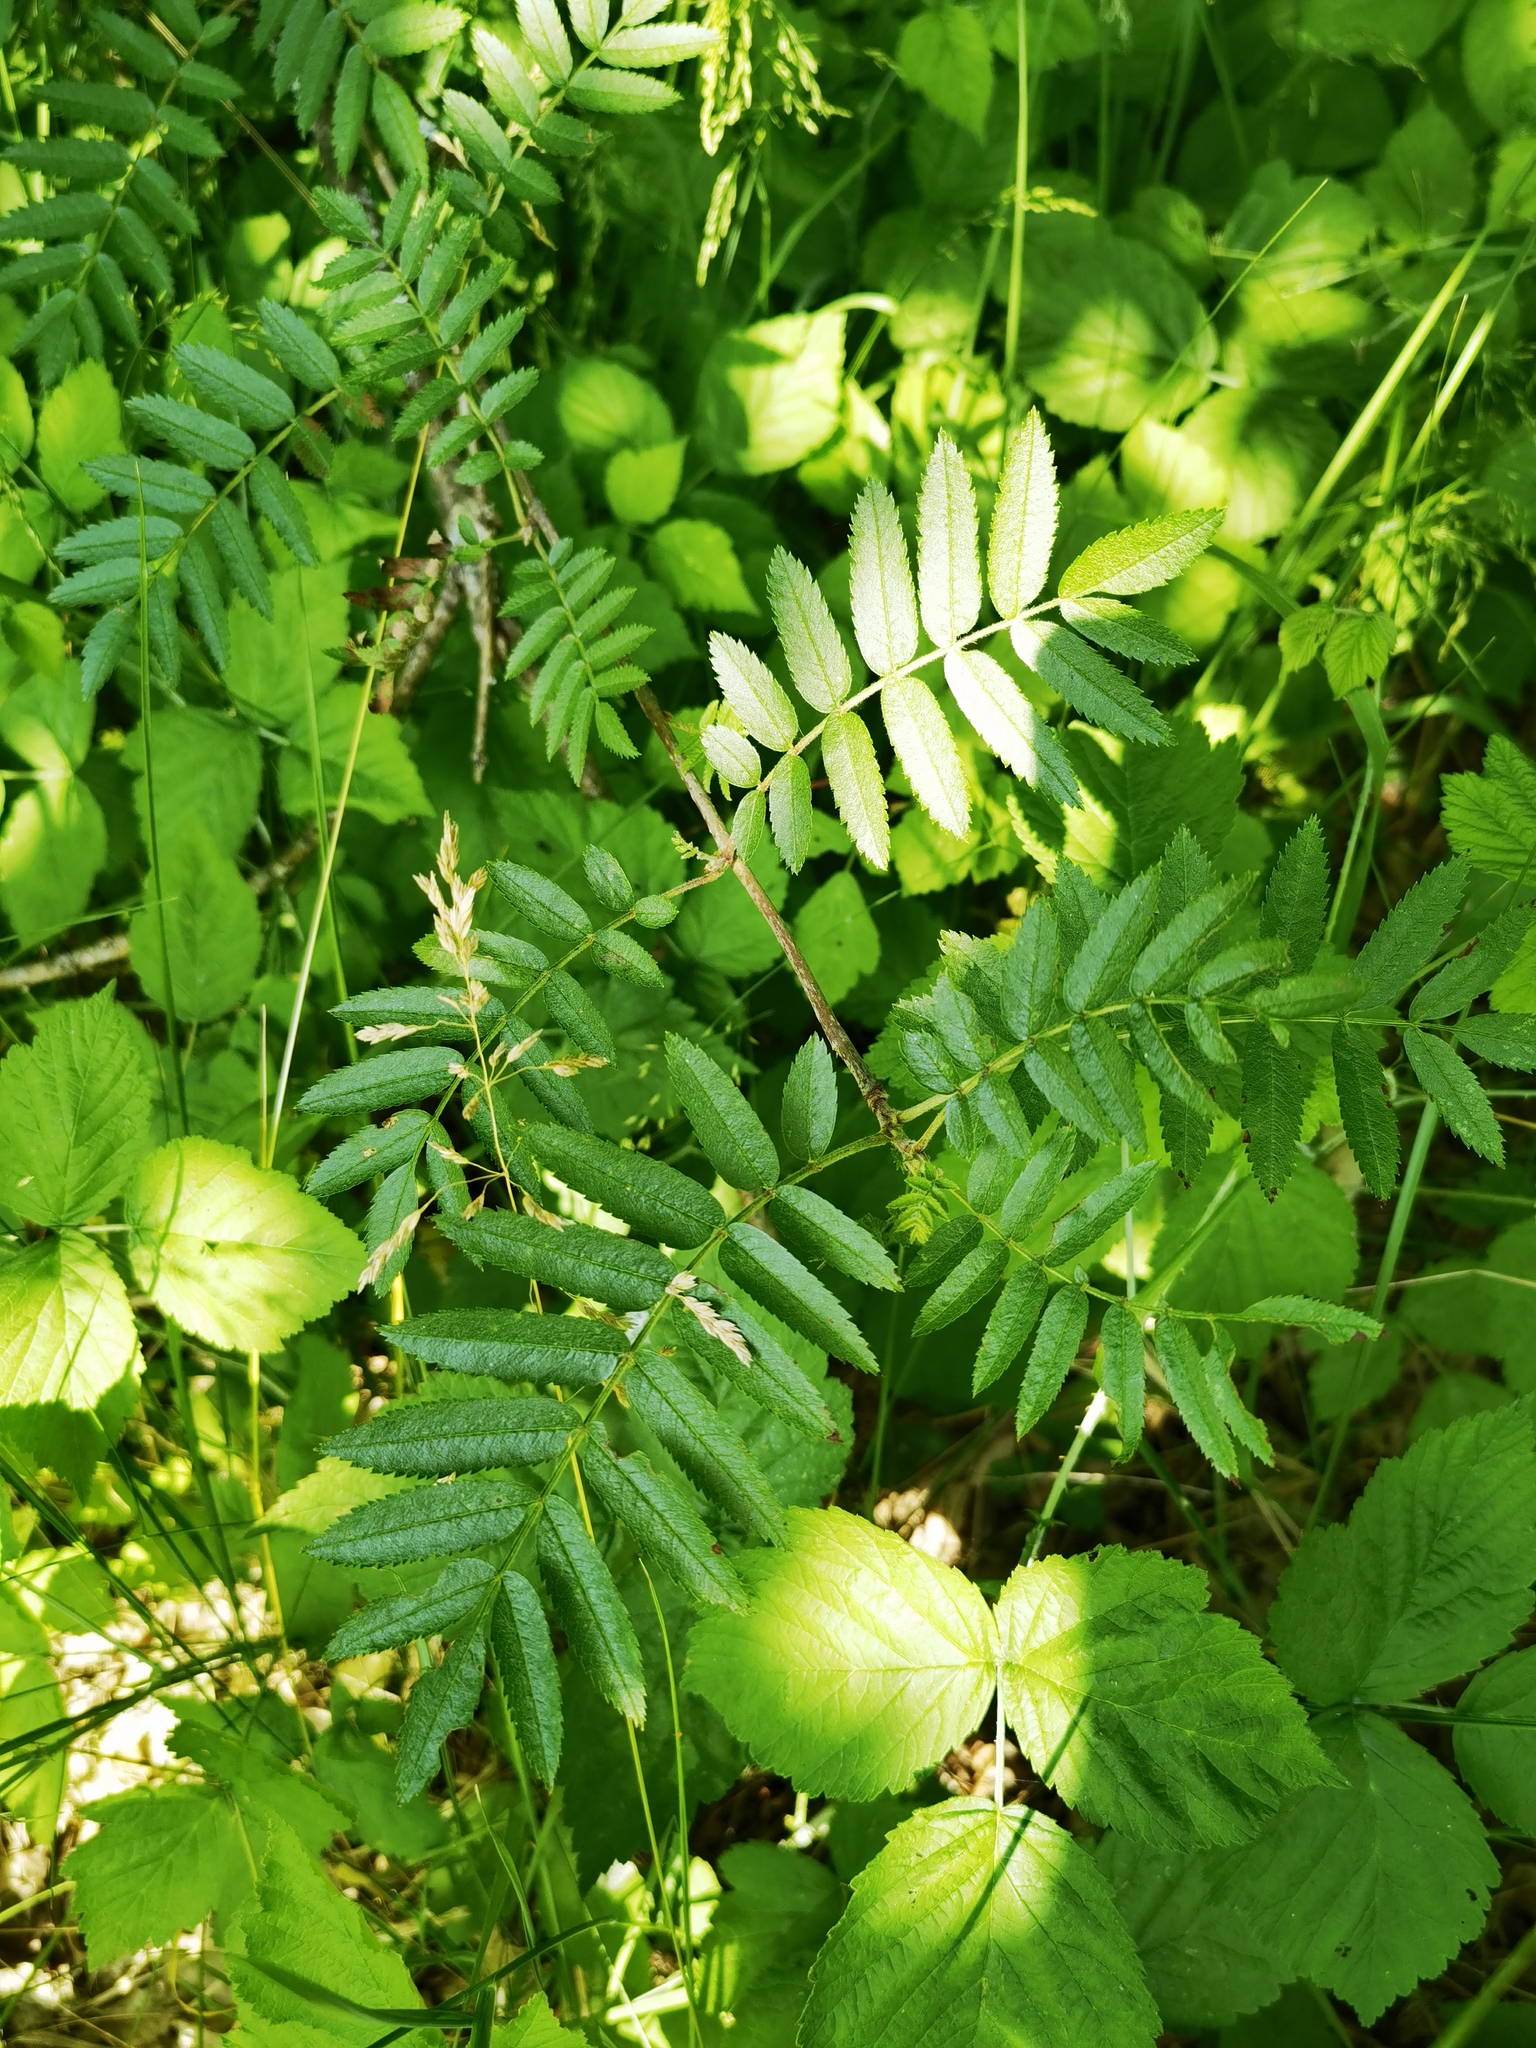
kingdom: Plantae
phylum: Tracheophyta
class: Magnoliopsida
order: Rosales
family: Rosaceae
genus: Sorbus
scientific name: Sorbus aucuparia
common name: Rowan
